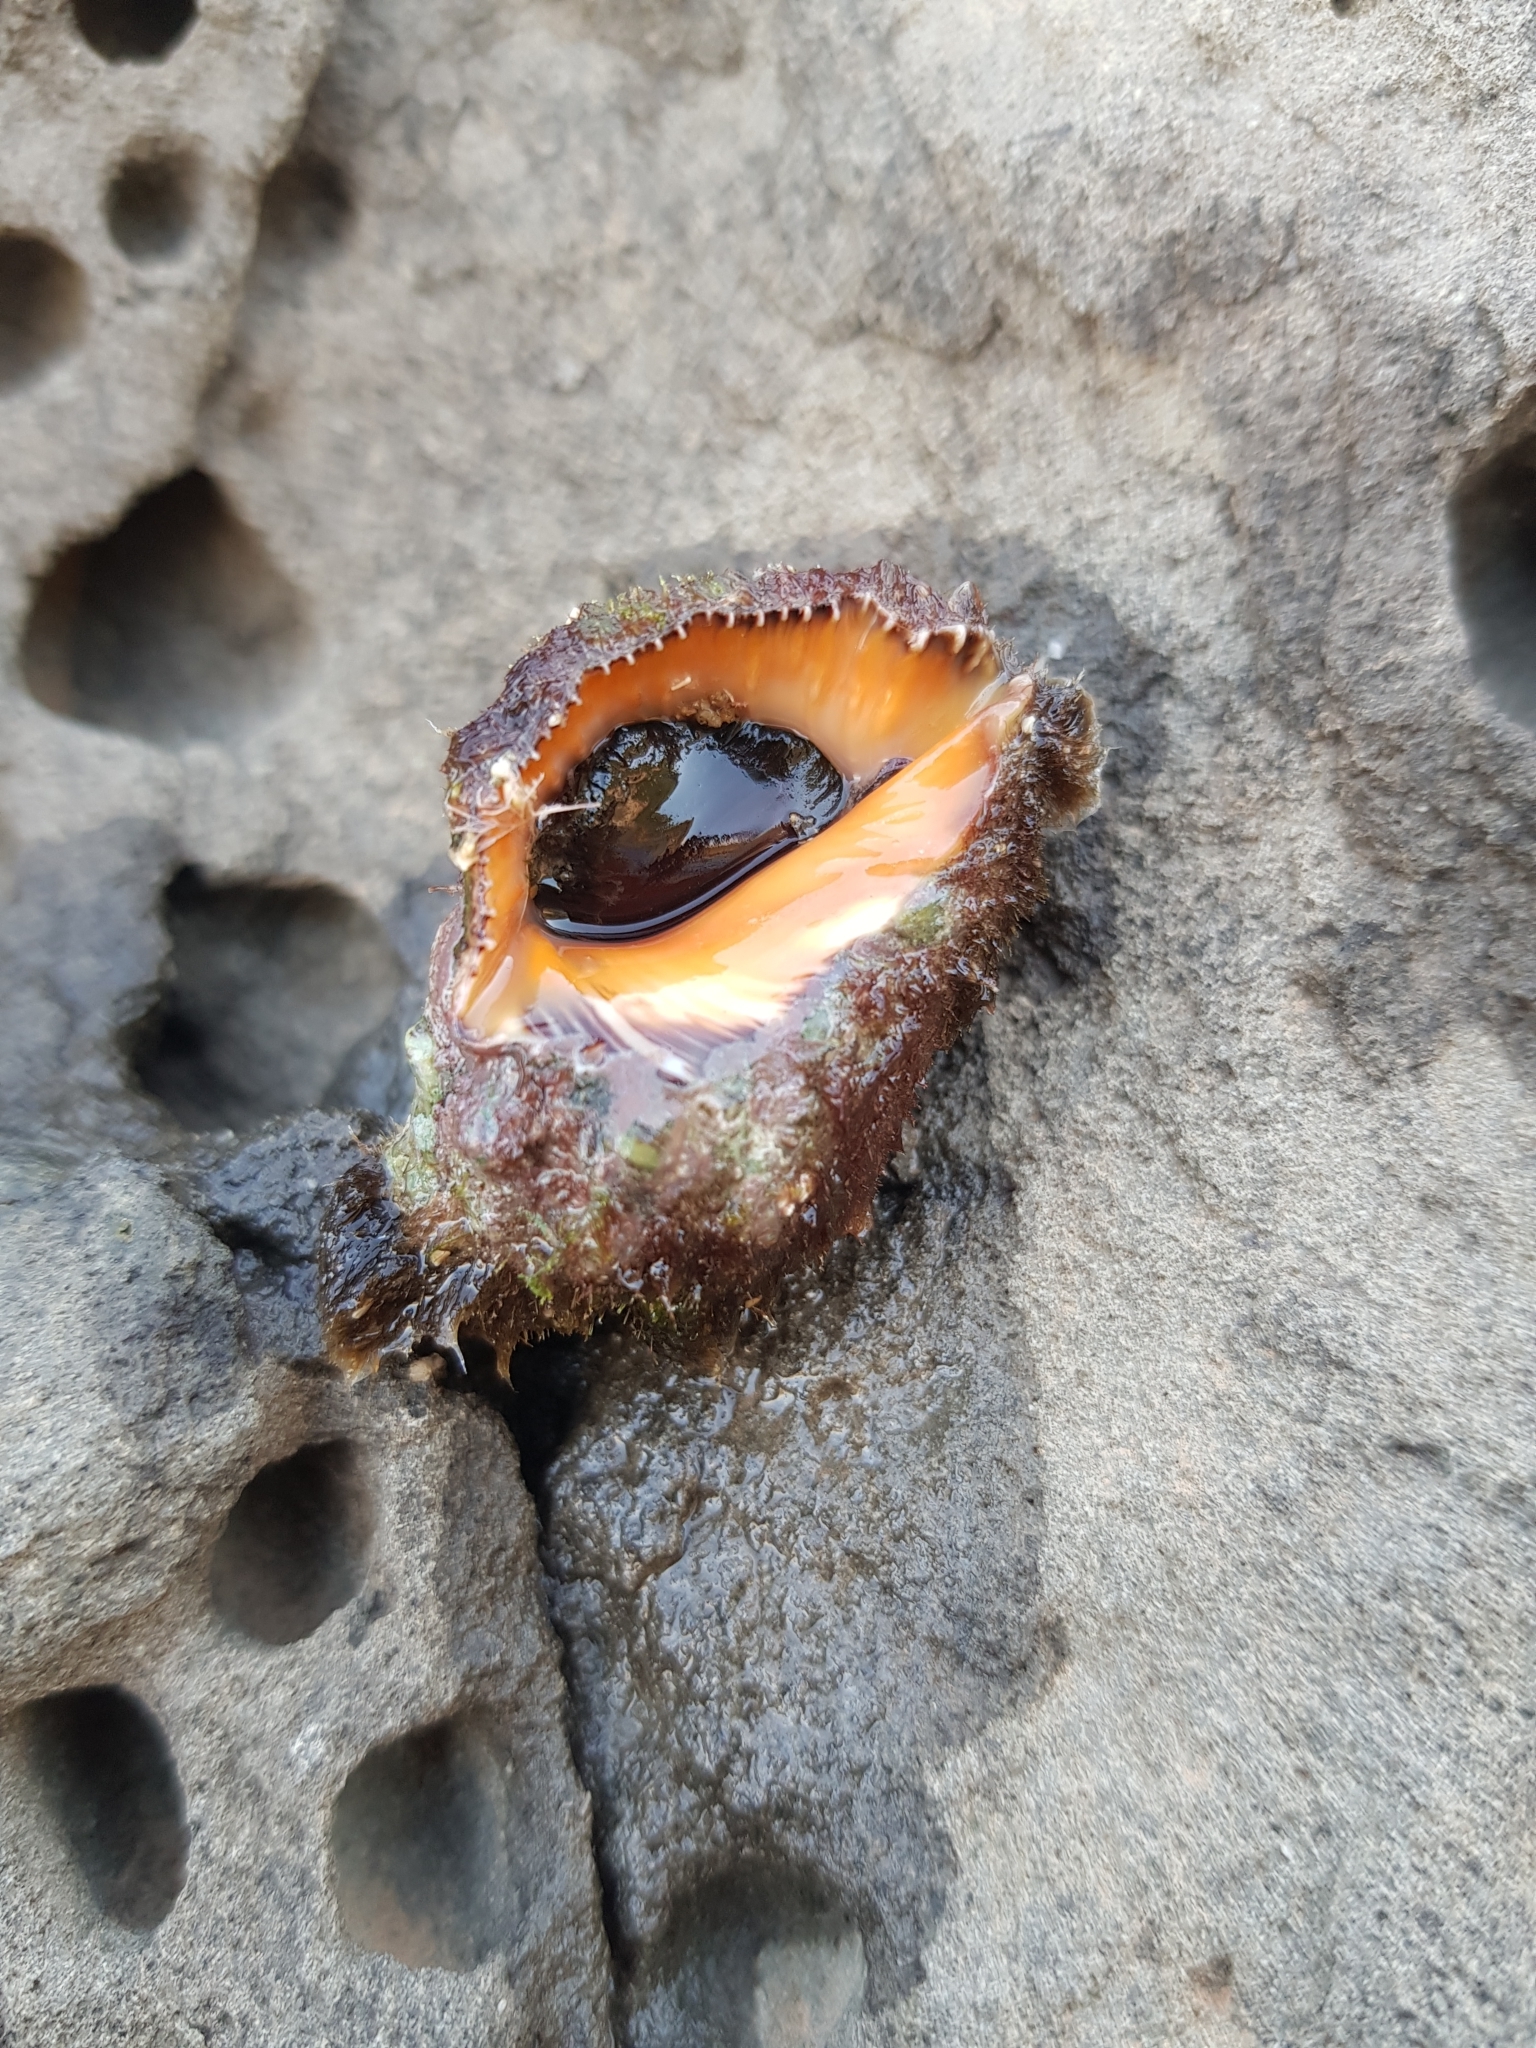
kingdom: Animalia
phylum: Mollusca
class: Gastropoda
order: Neogastropoda
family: Muricidae
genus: Stramonita
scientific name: Stramonita haemastoma
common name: Florida dog winkle
